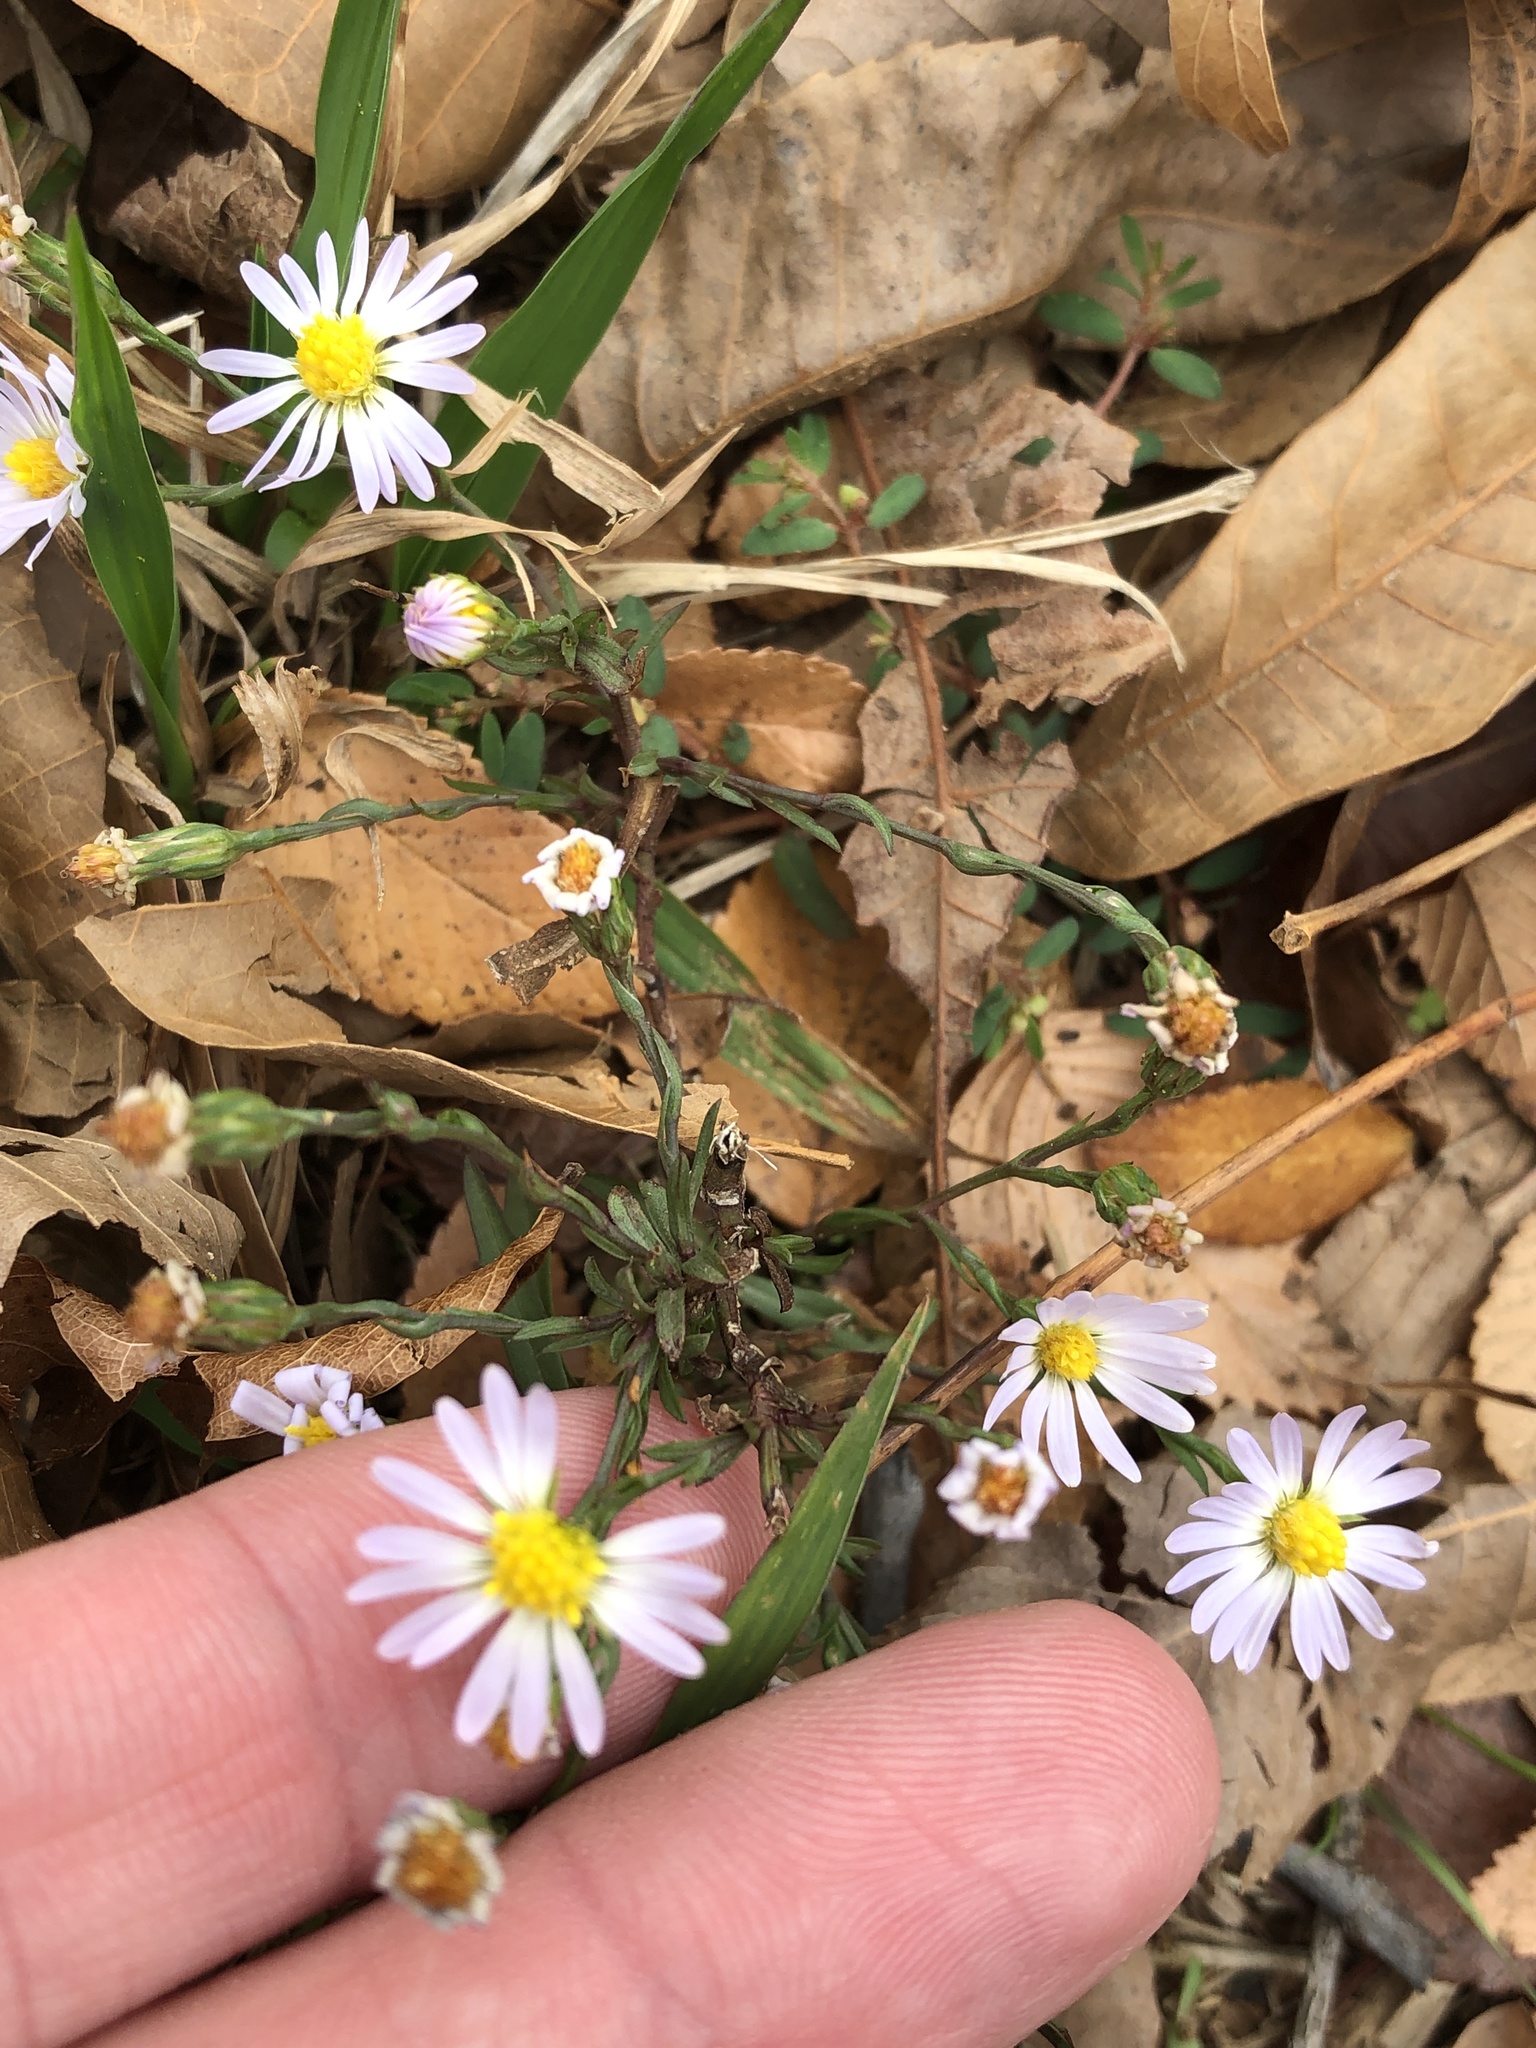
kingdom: Plantae
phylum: Tracheophyta
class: Magnoliopsida
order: Asterales
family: Asteraceae
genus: Symphyotrichum
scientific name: Symphyotrichum divaricatum
